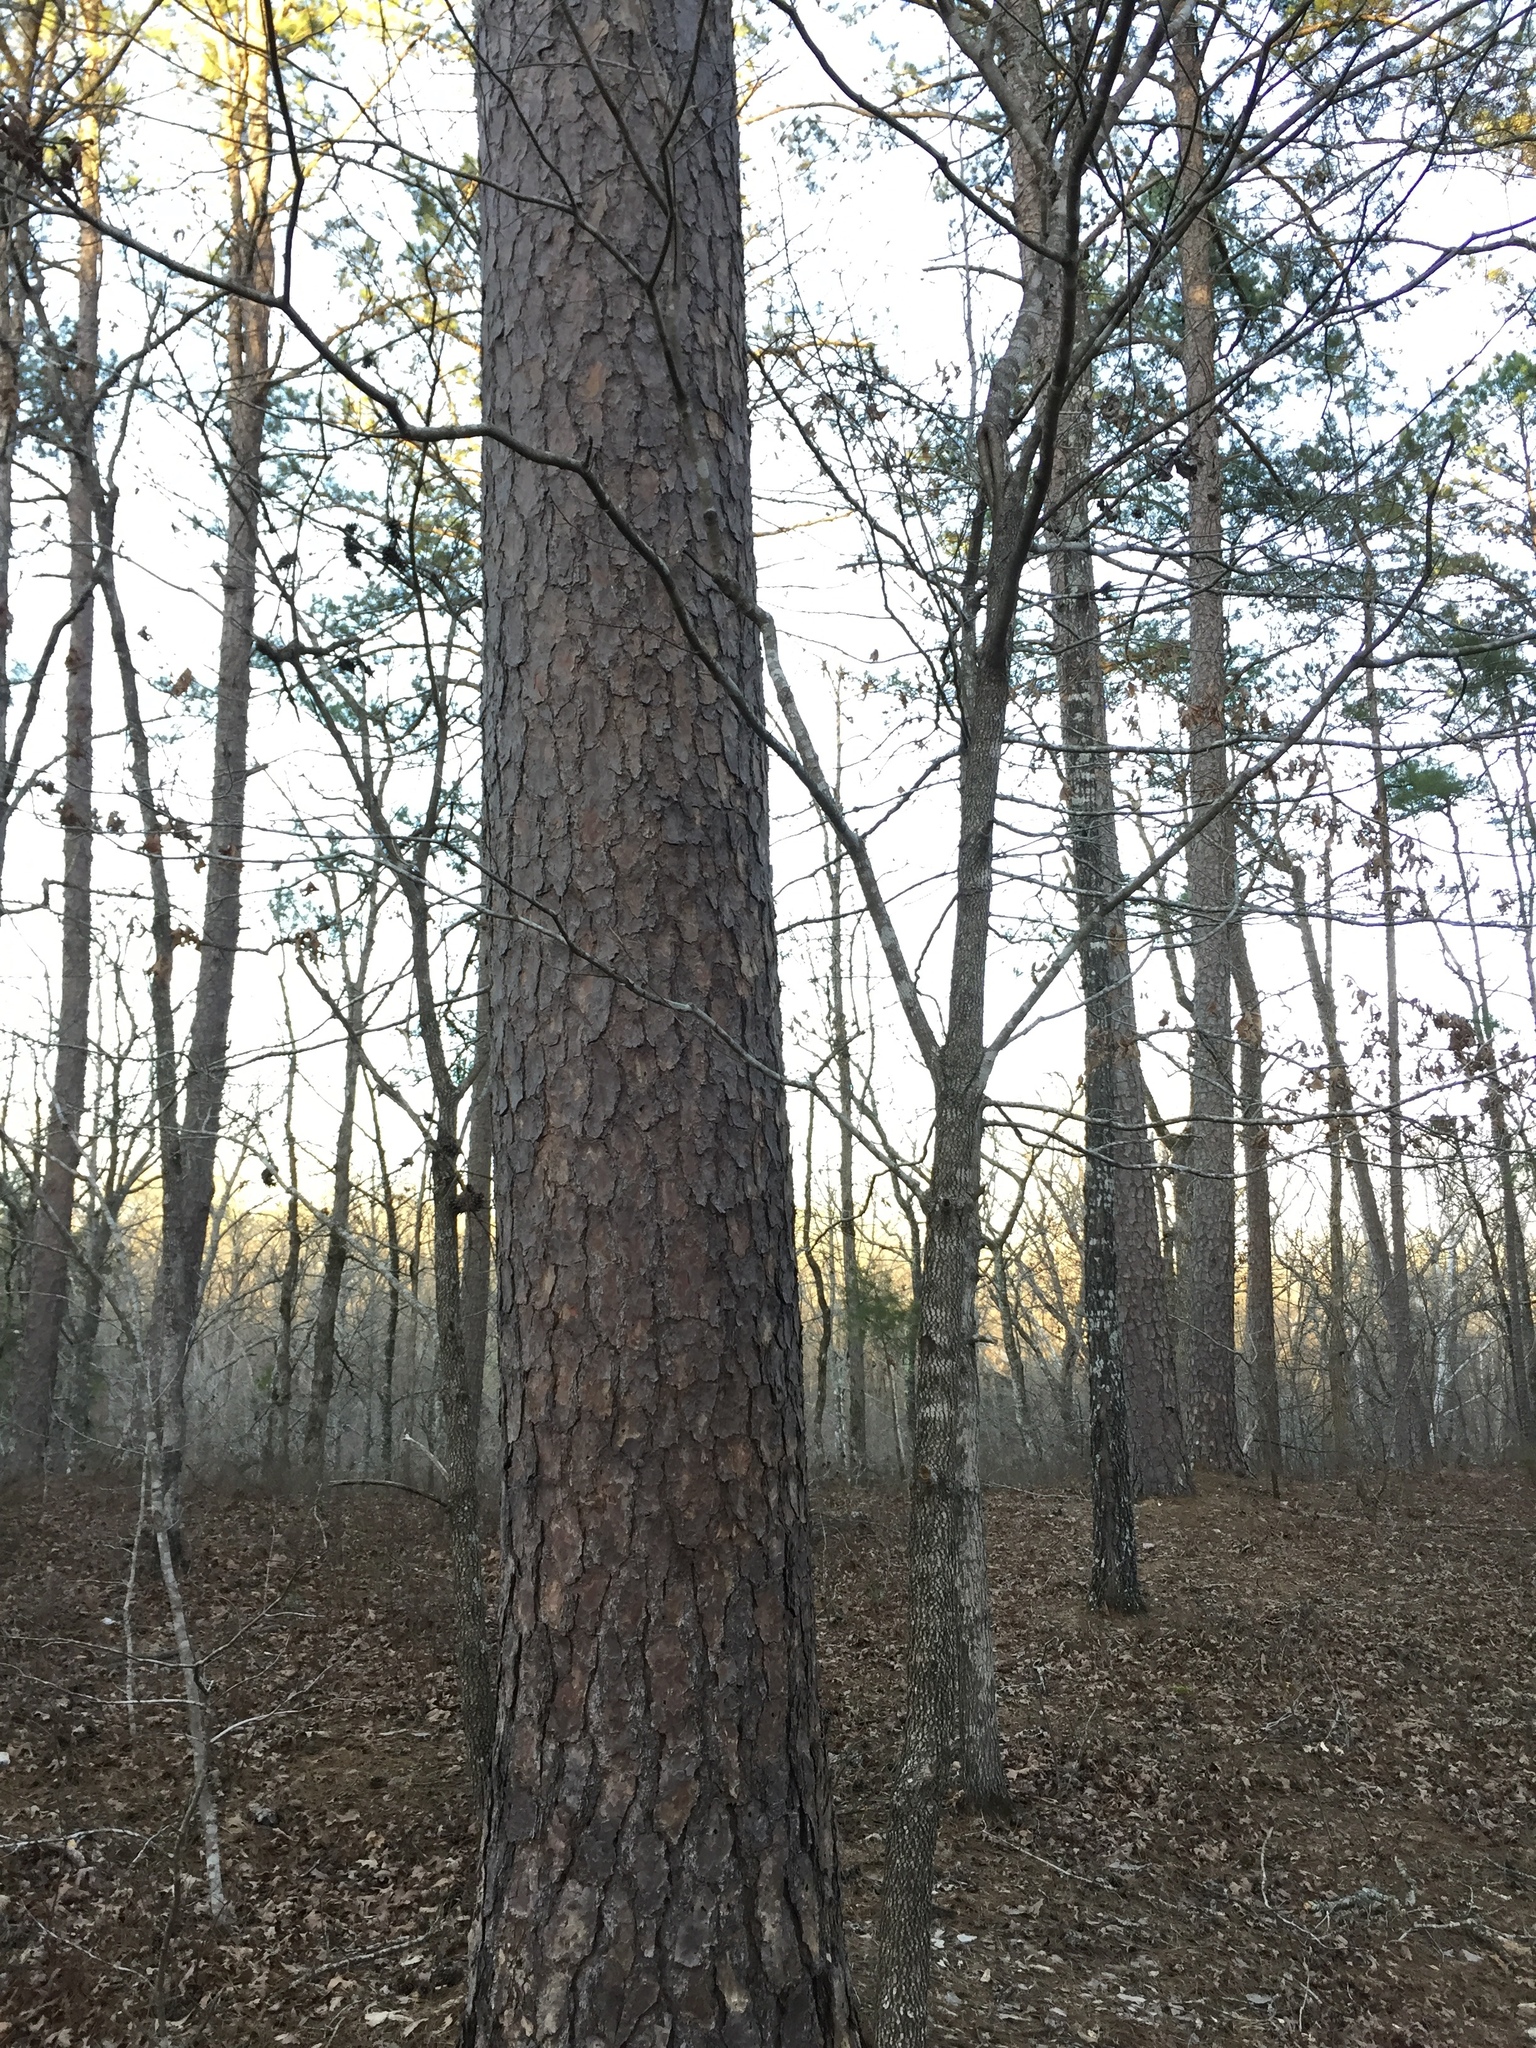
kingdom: Plantae
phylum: Tracheophyta
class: Pinopsida
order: Pinales
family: Pinaceae
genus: Pinus
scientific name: Pinus taeda
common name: Loblolly pine
